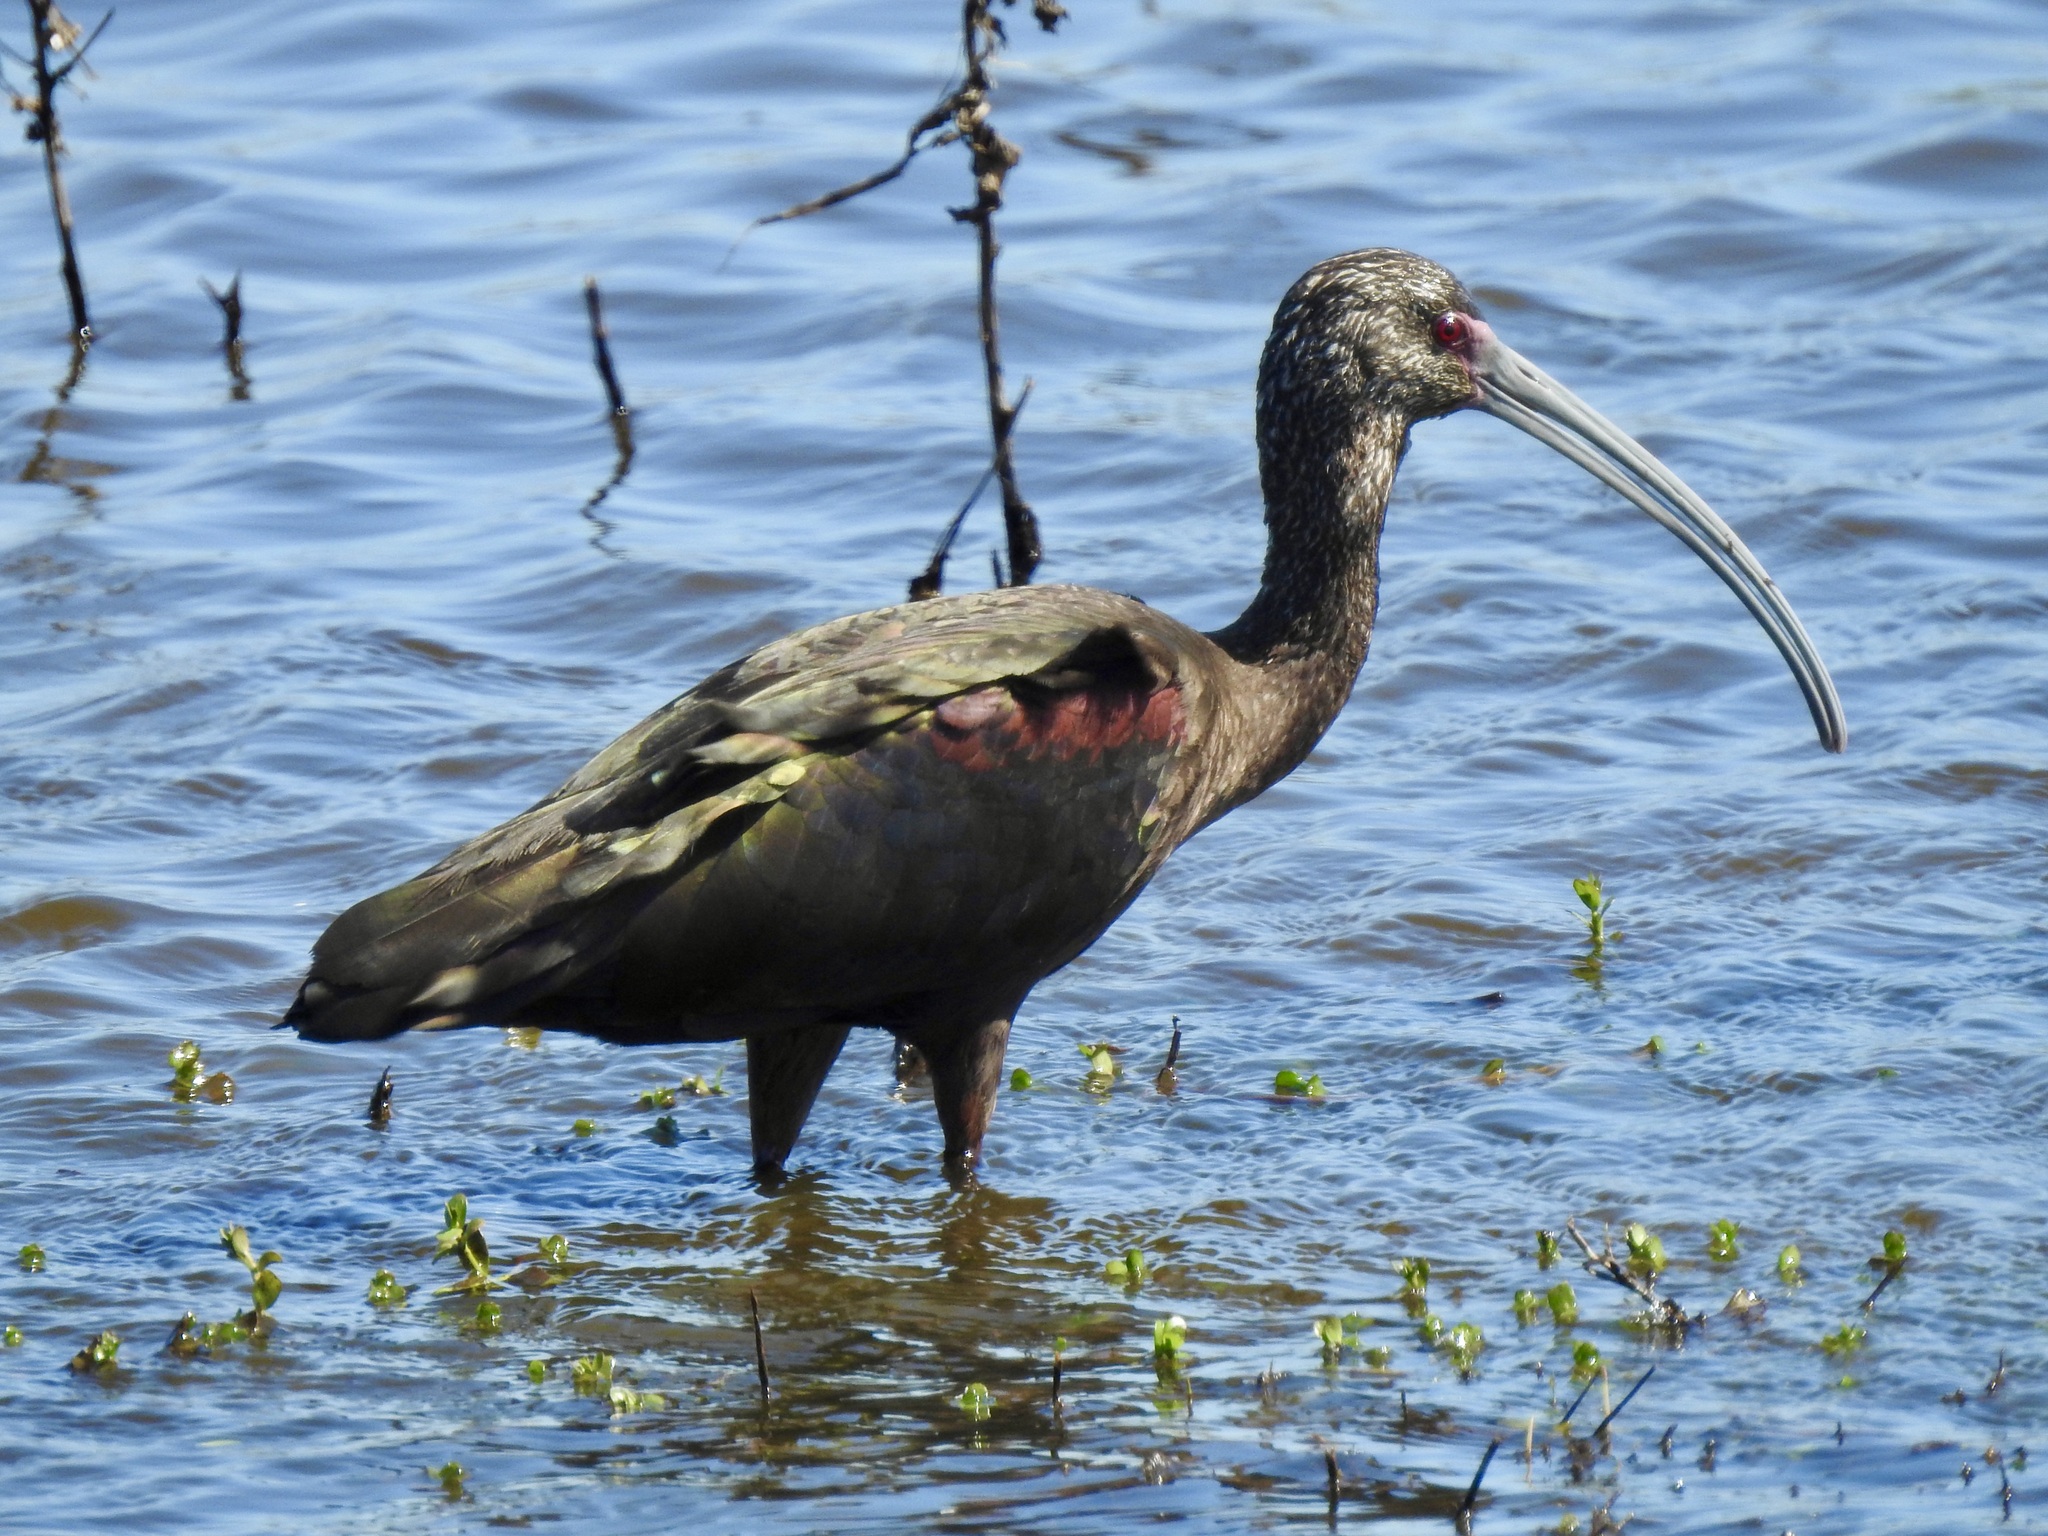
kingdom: Animalia
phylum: Chordata
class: Aves
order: Pelecaniformes
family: Threskiornithidae
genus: Plegadis
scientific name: Plegadis chihi
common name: White-faced ibis
